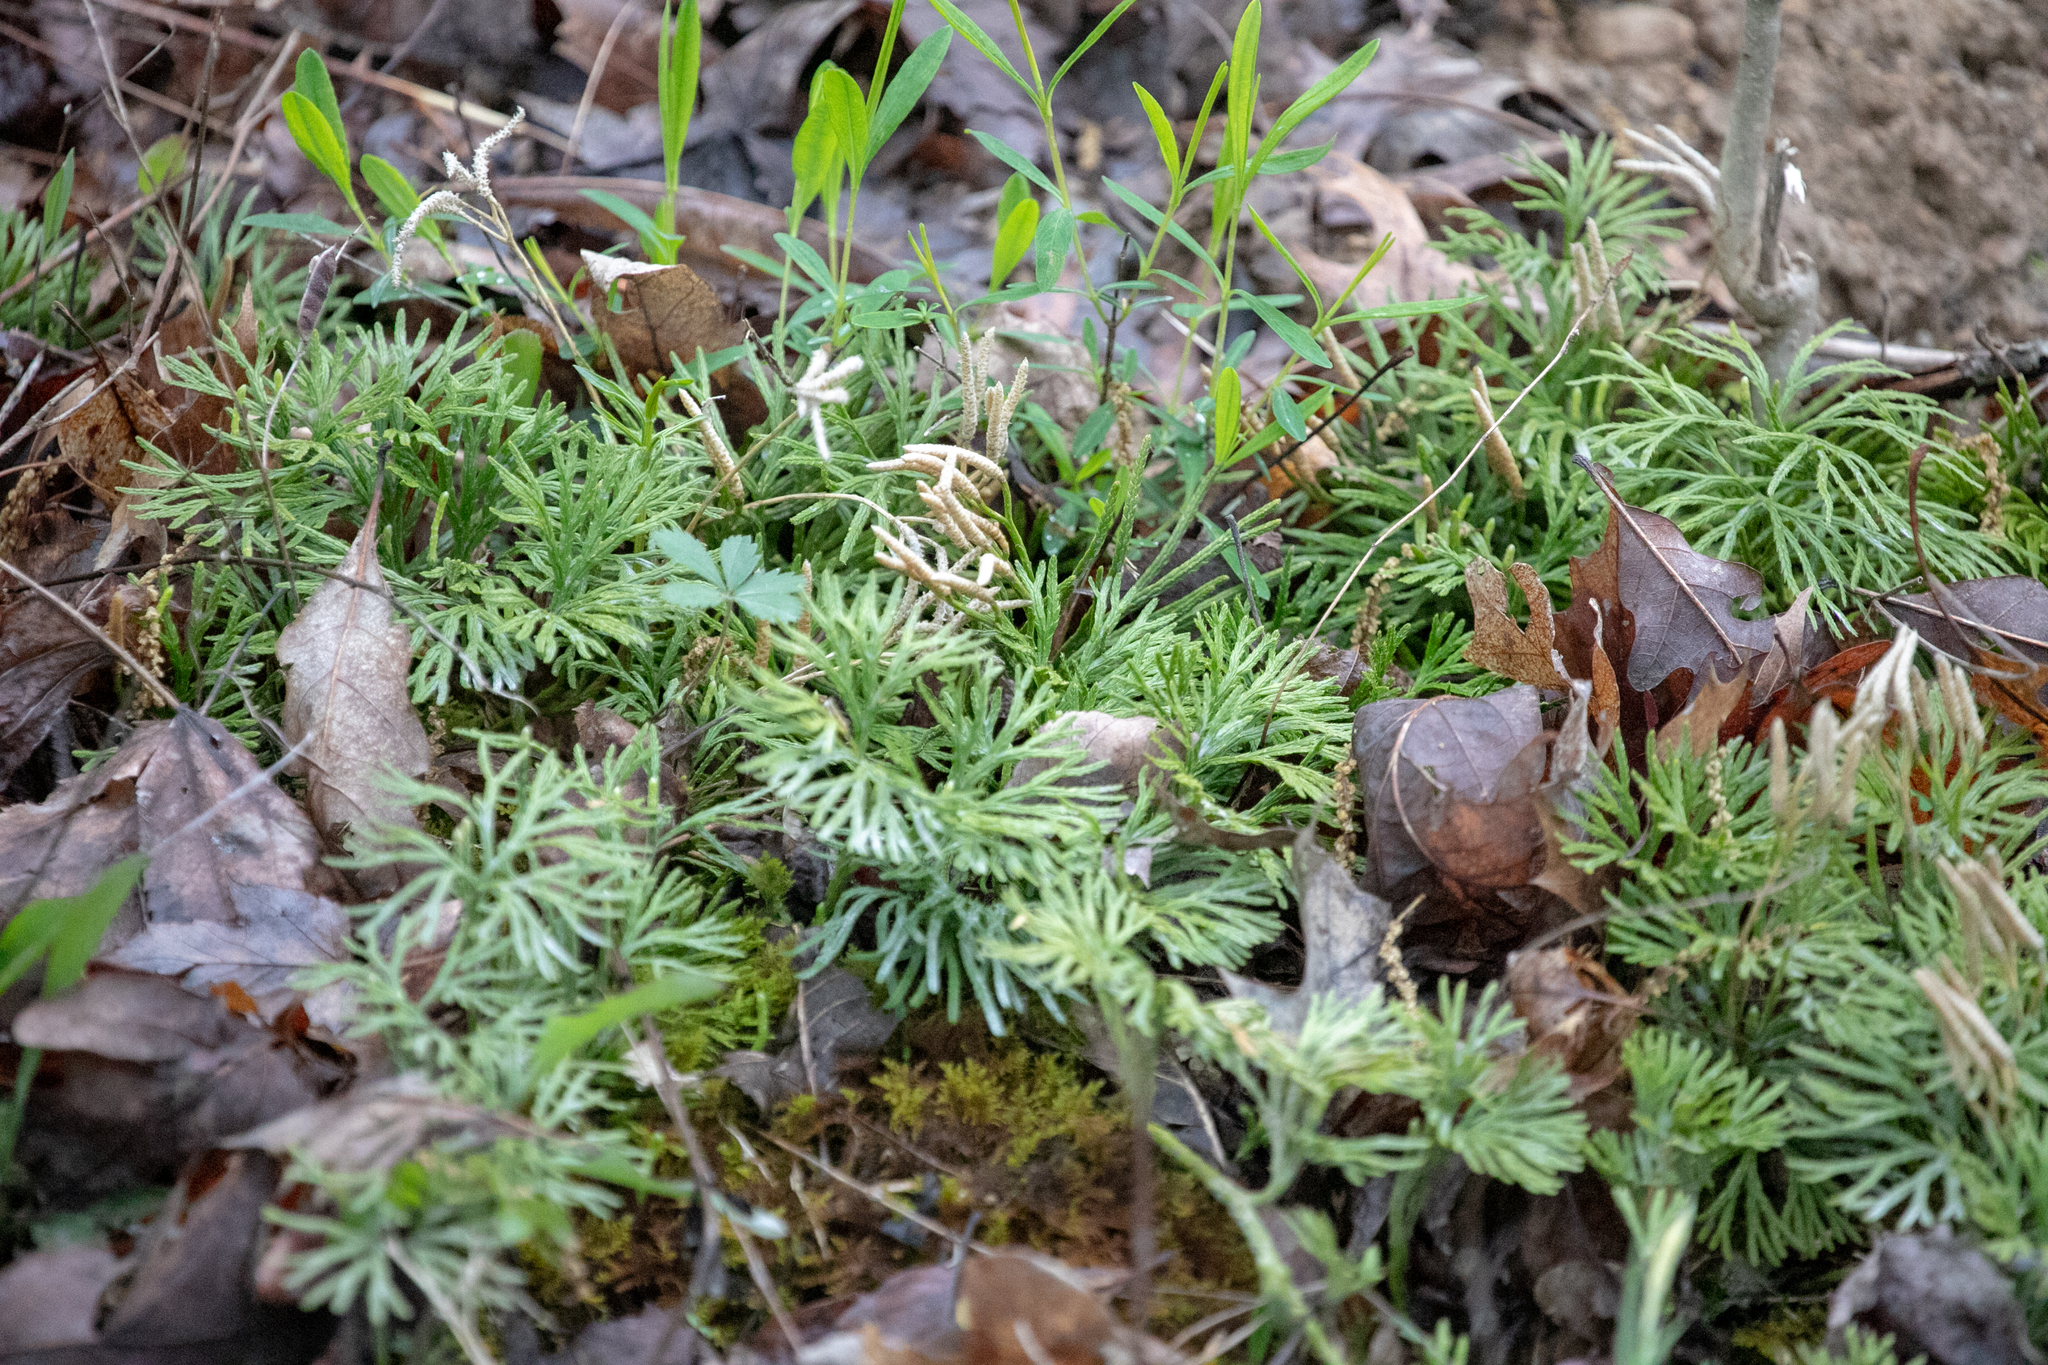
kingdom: Plantae
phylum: Tracheophyta
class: Lycopodiopsida
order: Lycopodiales
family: Lycopodiaceae
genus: Diphasiastrum
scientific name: Diphasiastrum digitatum
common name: Southern running-pine
